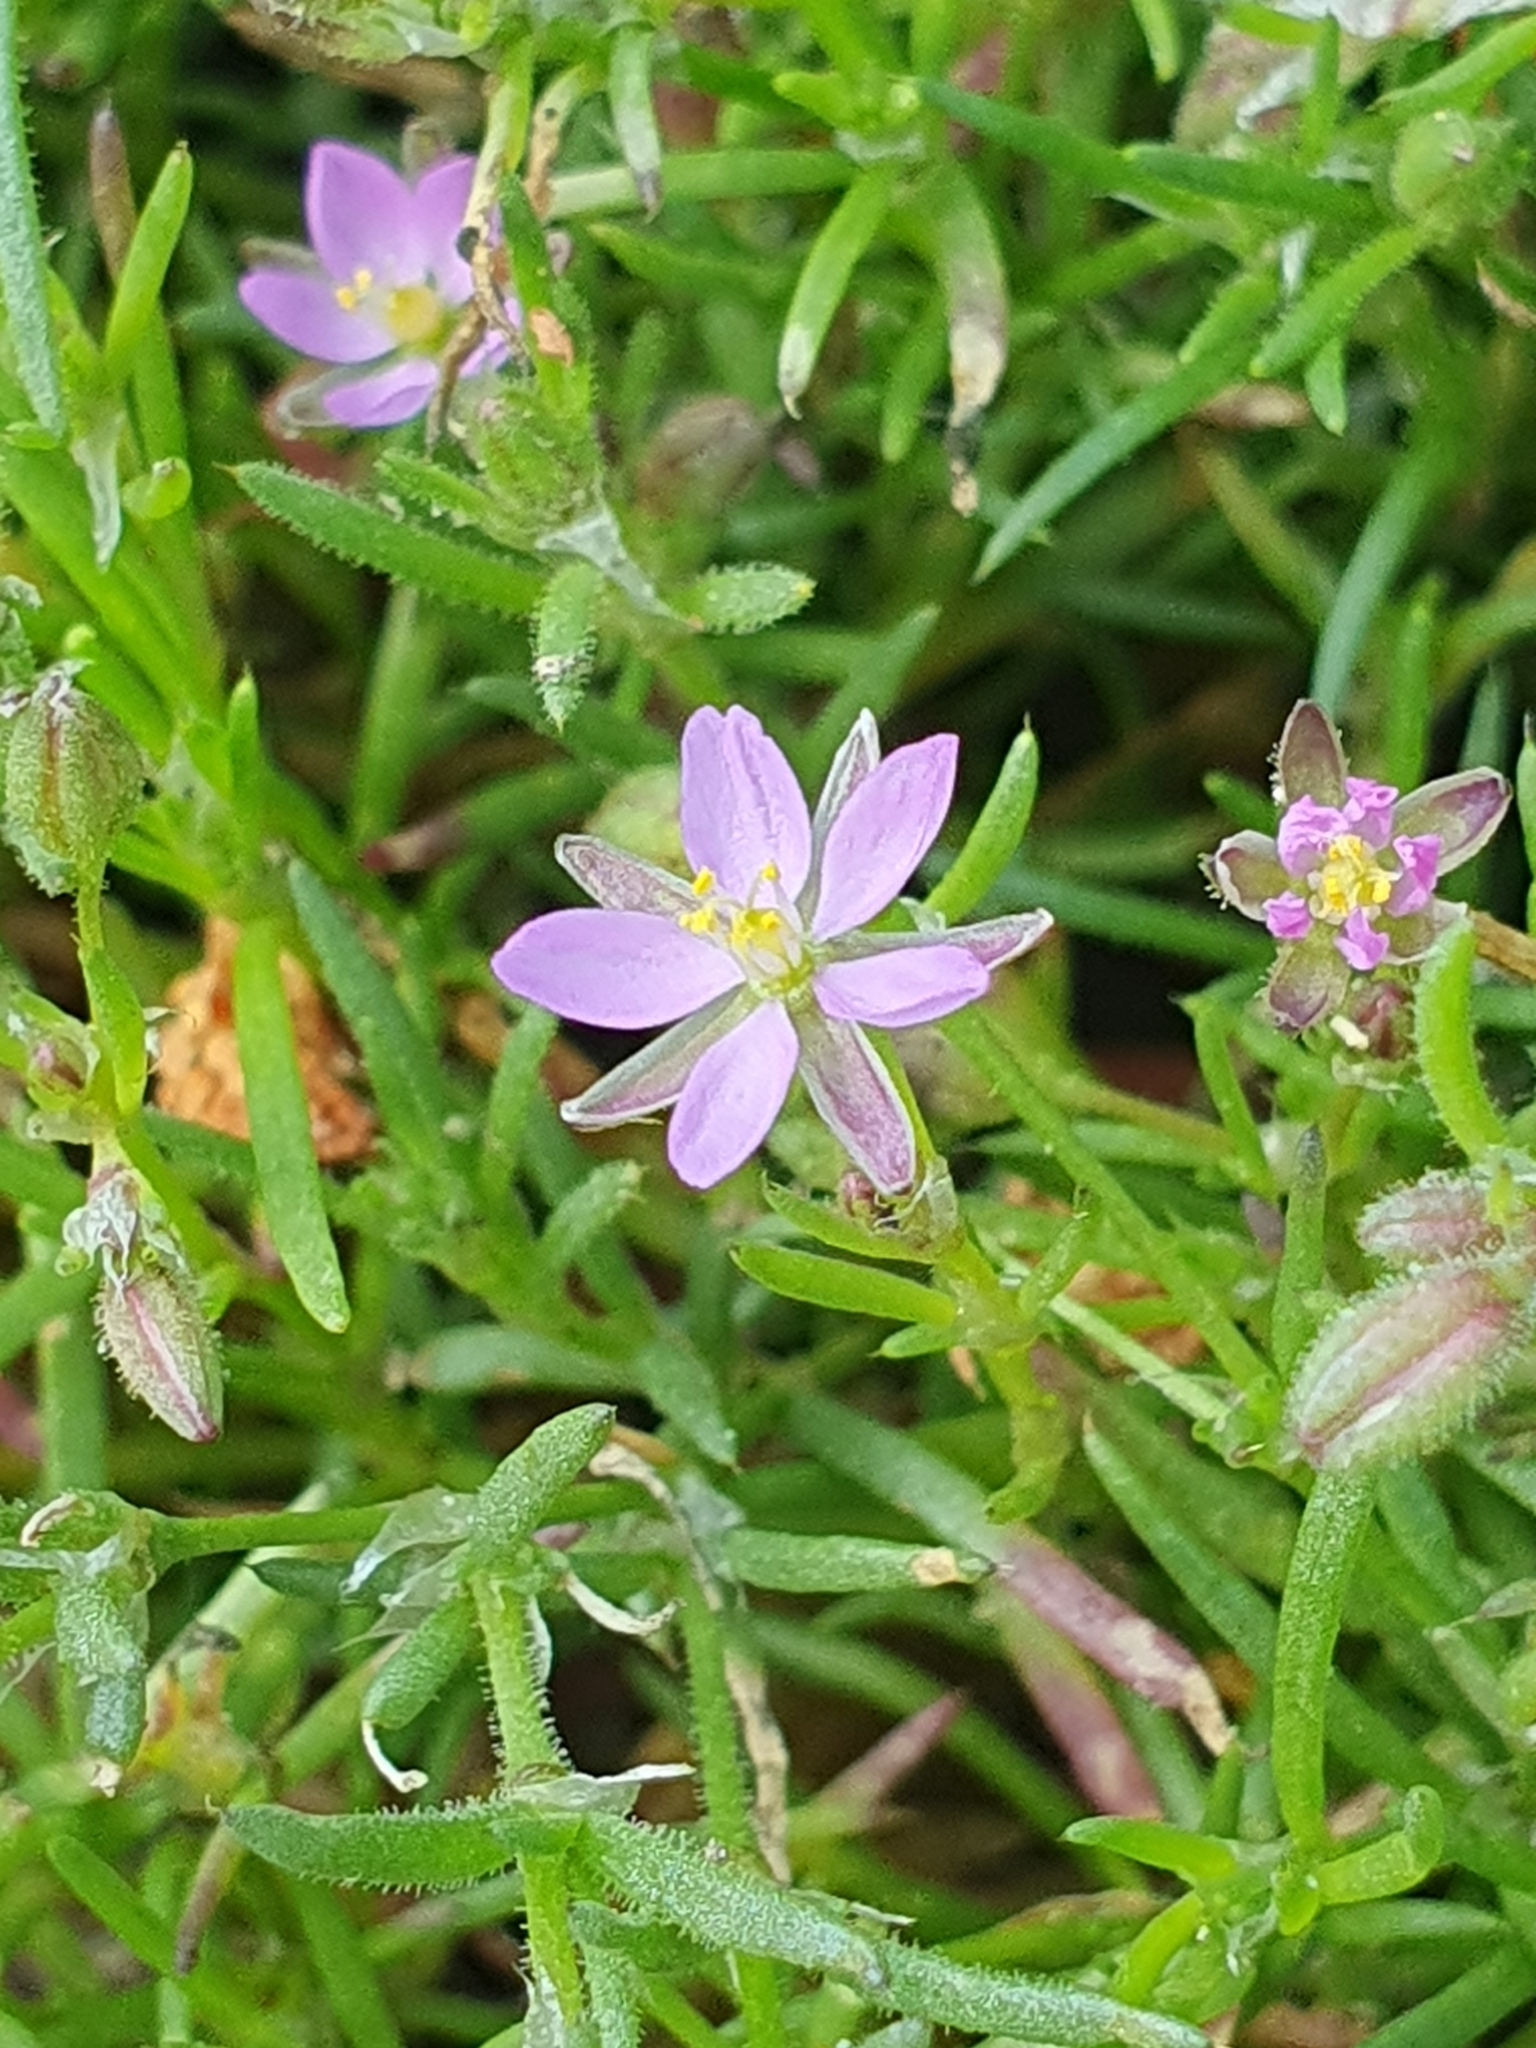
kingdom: Plantae
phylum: Tracheophyta
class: Magnoliopsida
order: Caryophyllales
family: Caryophyllaceae
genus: Spergularia
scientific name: Spergularia rubra
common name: Red sand-spurrey
